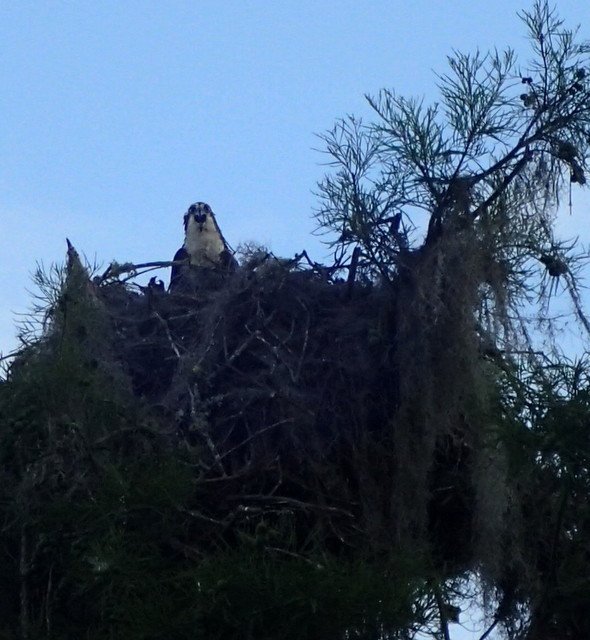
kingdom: Animalia
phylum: Chordata
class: Aves
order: Accipitriformes
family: Pandionidae
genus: Pandion
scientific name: Pandion haliaetus
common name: Osprey
